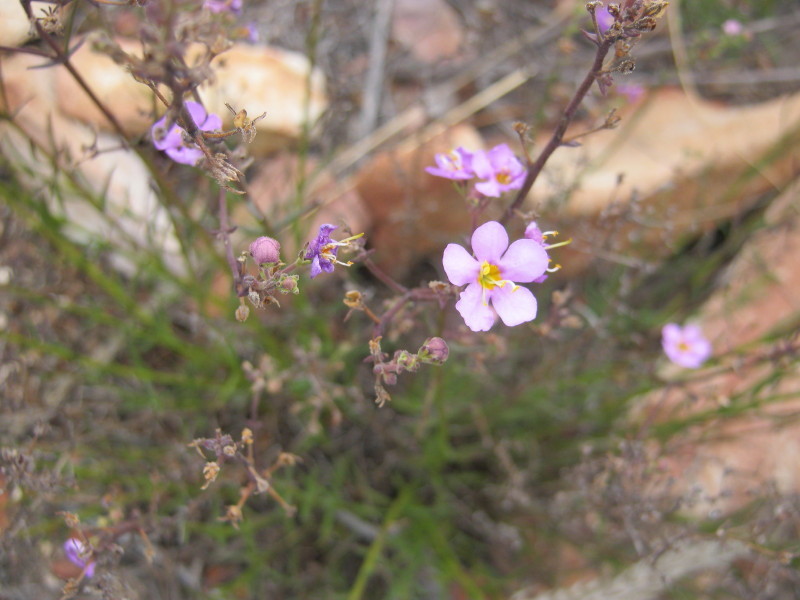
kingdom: Plantae
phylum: Tracheophyta
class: Magnoliopsida
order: Lamiales
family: Scrophulariaceae
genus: Chaenostoma
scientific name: Chaenostoma subnudum
